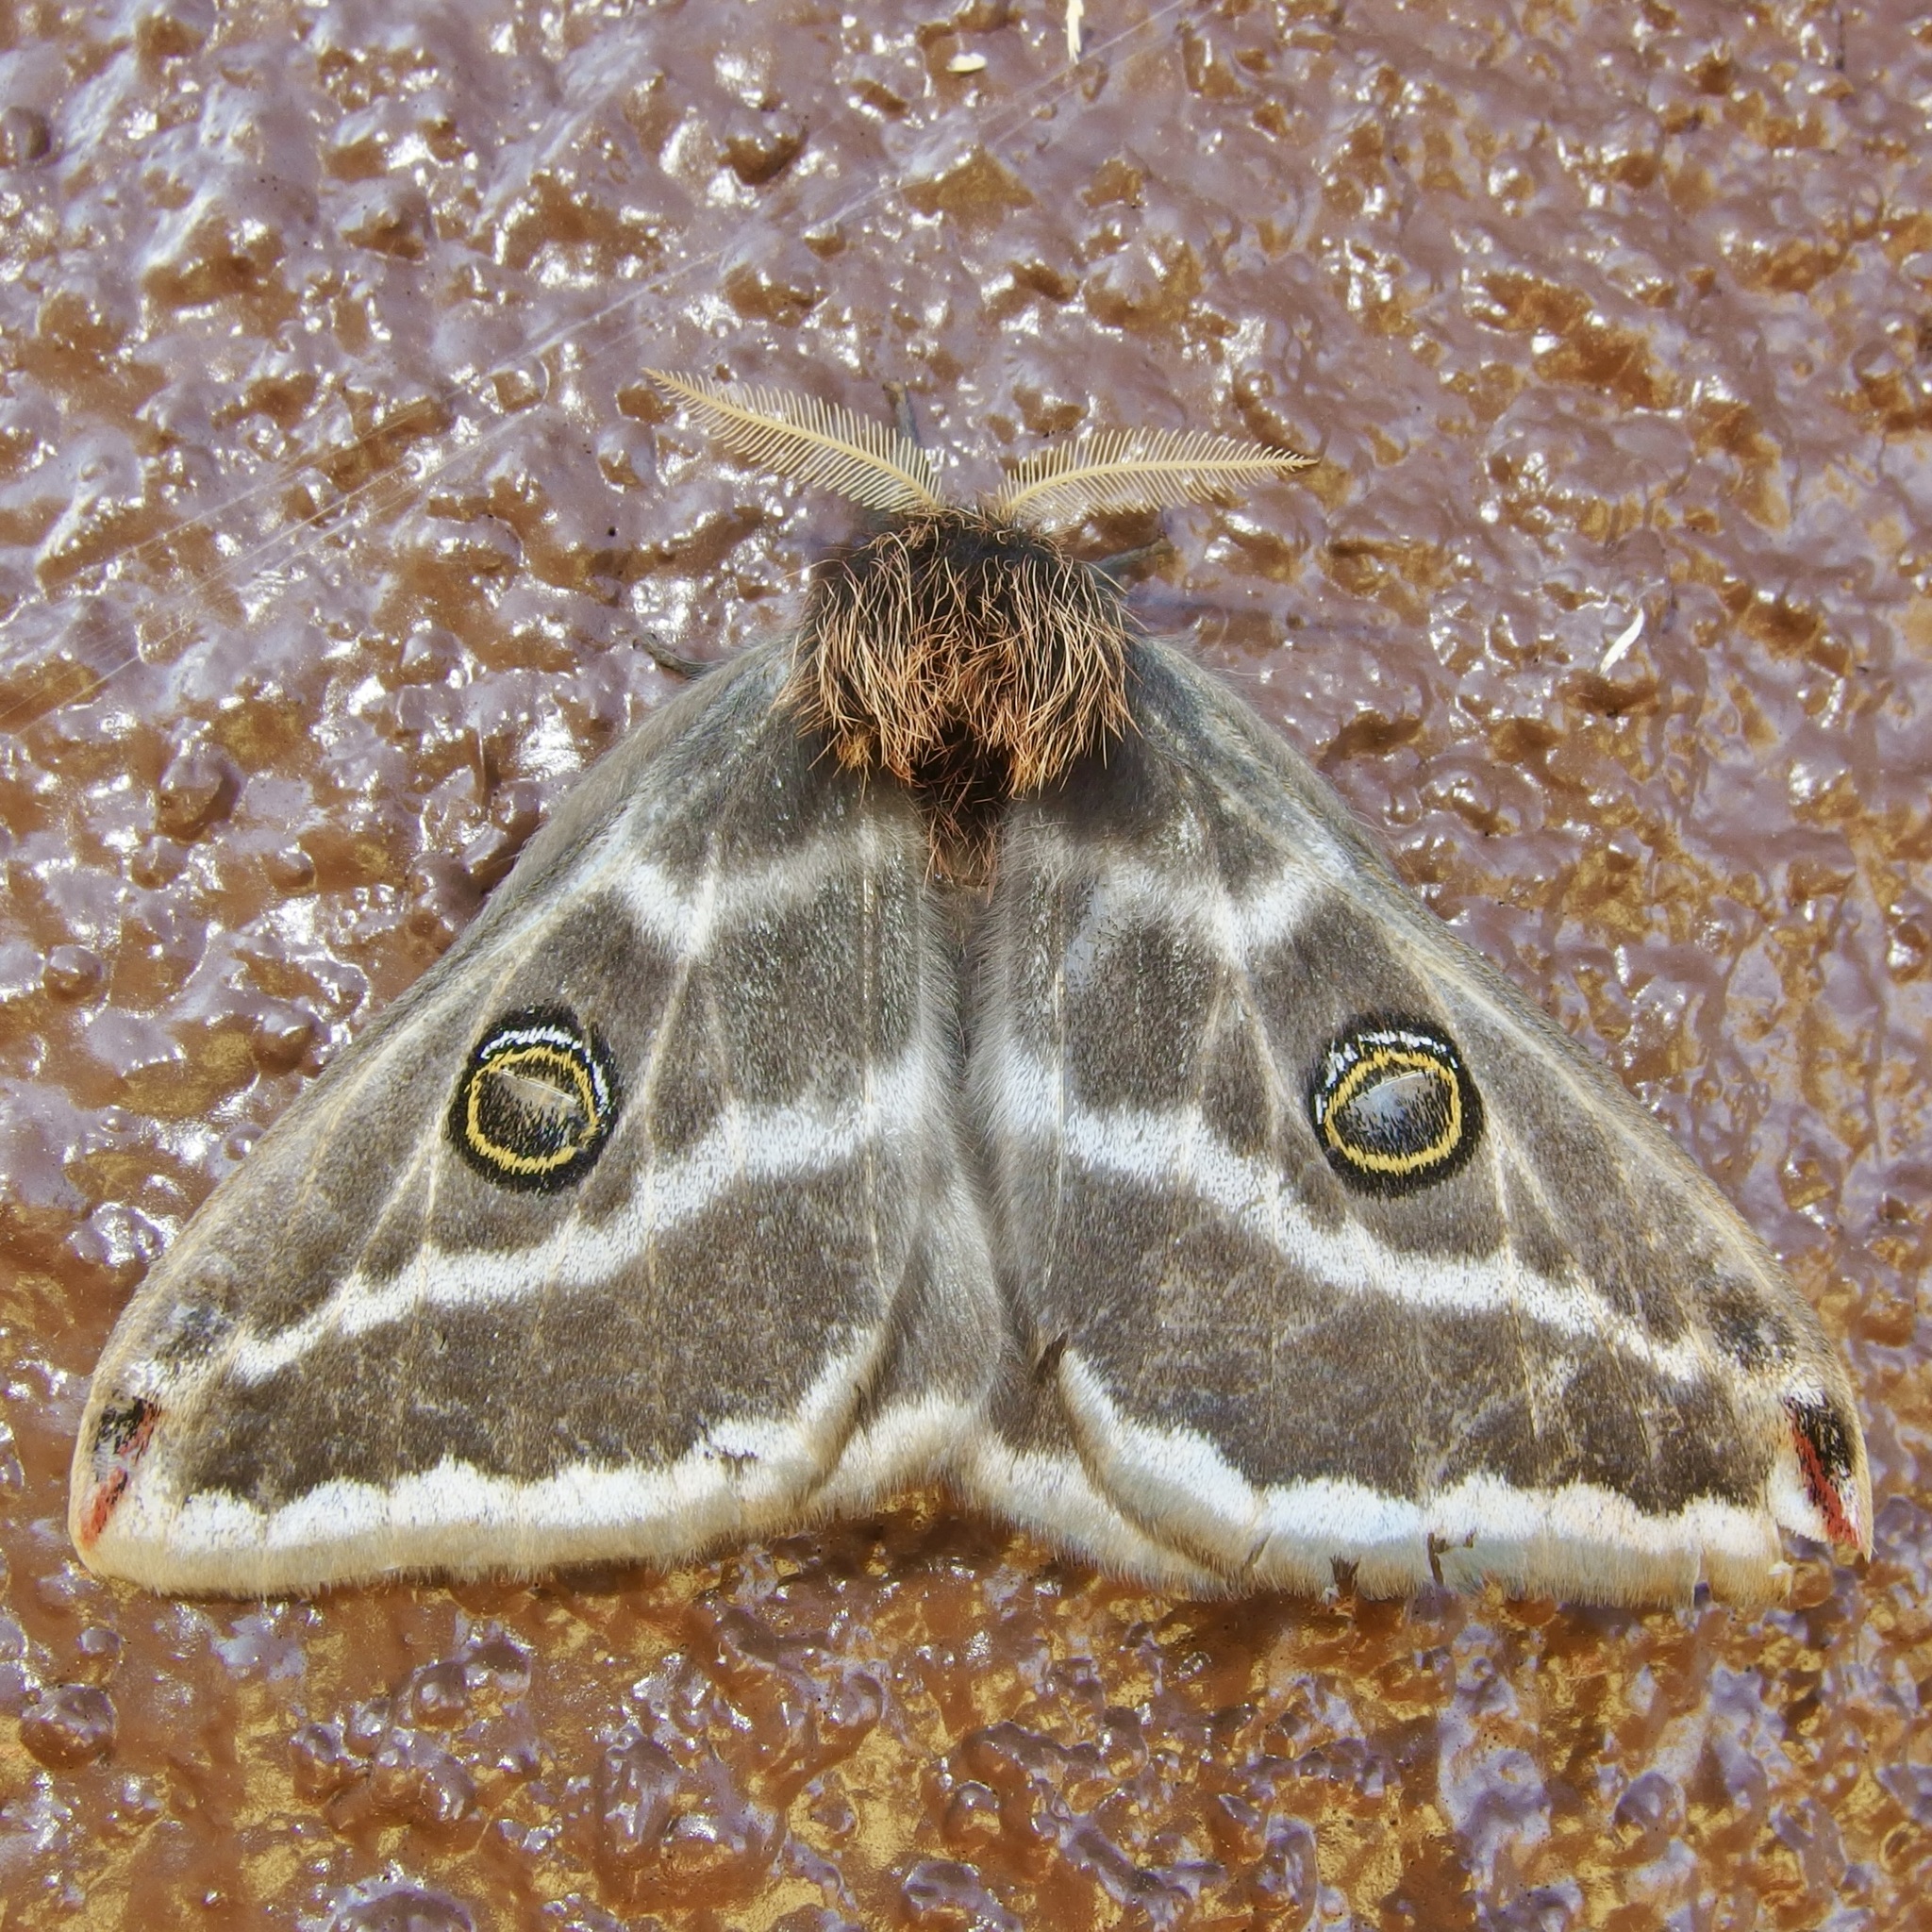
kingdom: Animalia
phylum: Arthropoda
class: Insecta
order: Lepidoptera
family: Saturniidae
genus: Saturnia
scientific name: Saturnia anona
